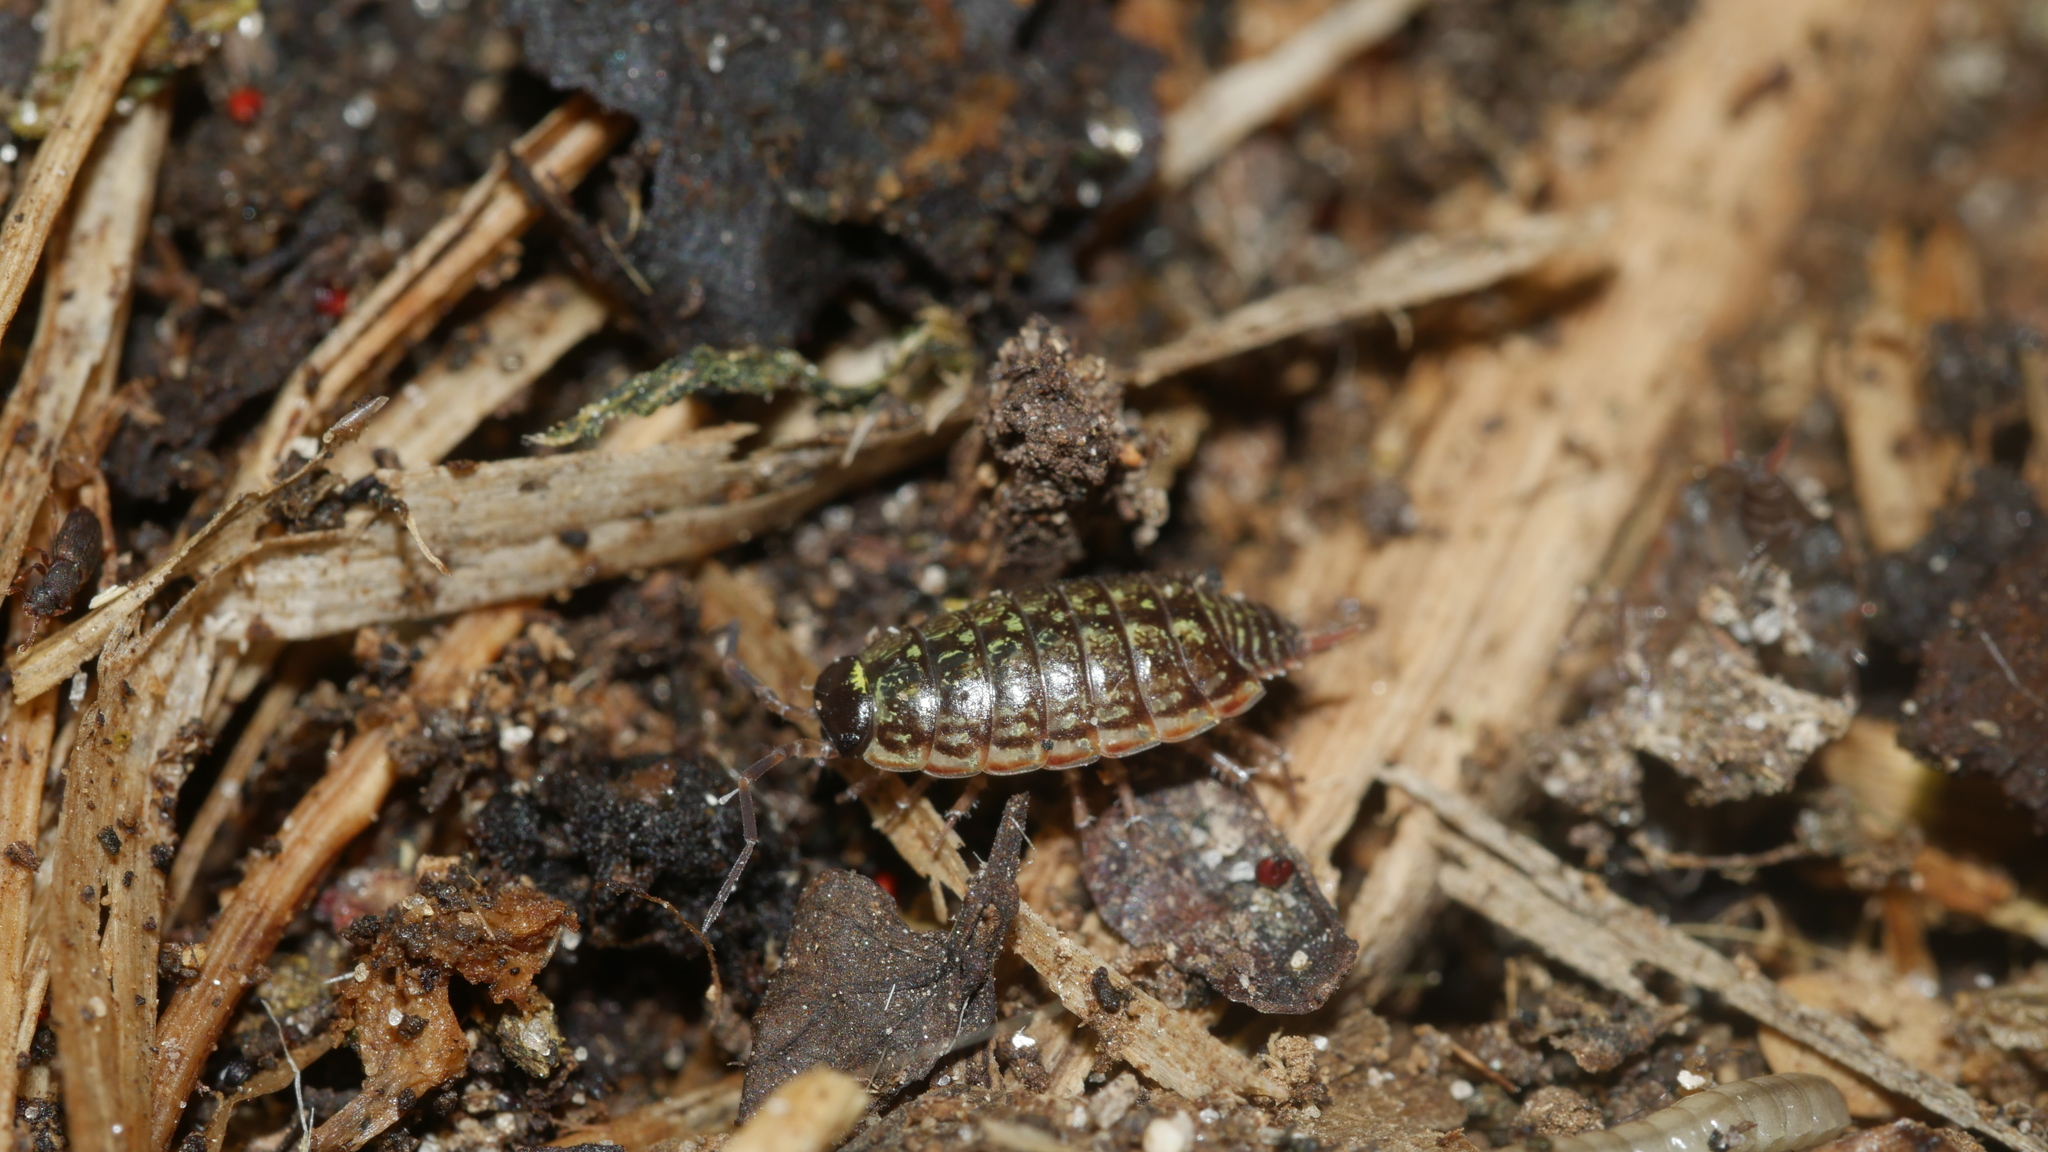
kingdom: Animalia
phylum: Arthropoda
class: Malacostraca
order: Isopoda
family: Philosciidae
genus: Philoscia
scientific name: Philoscia muscorum
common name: Common striped woodlouse
